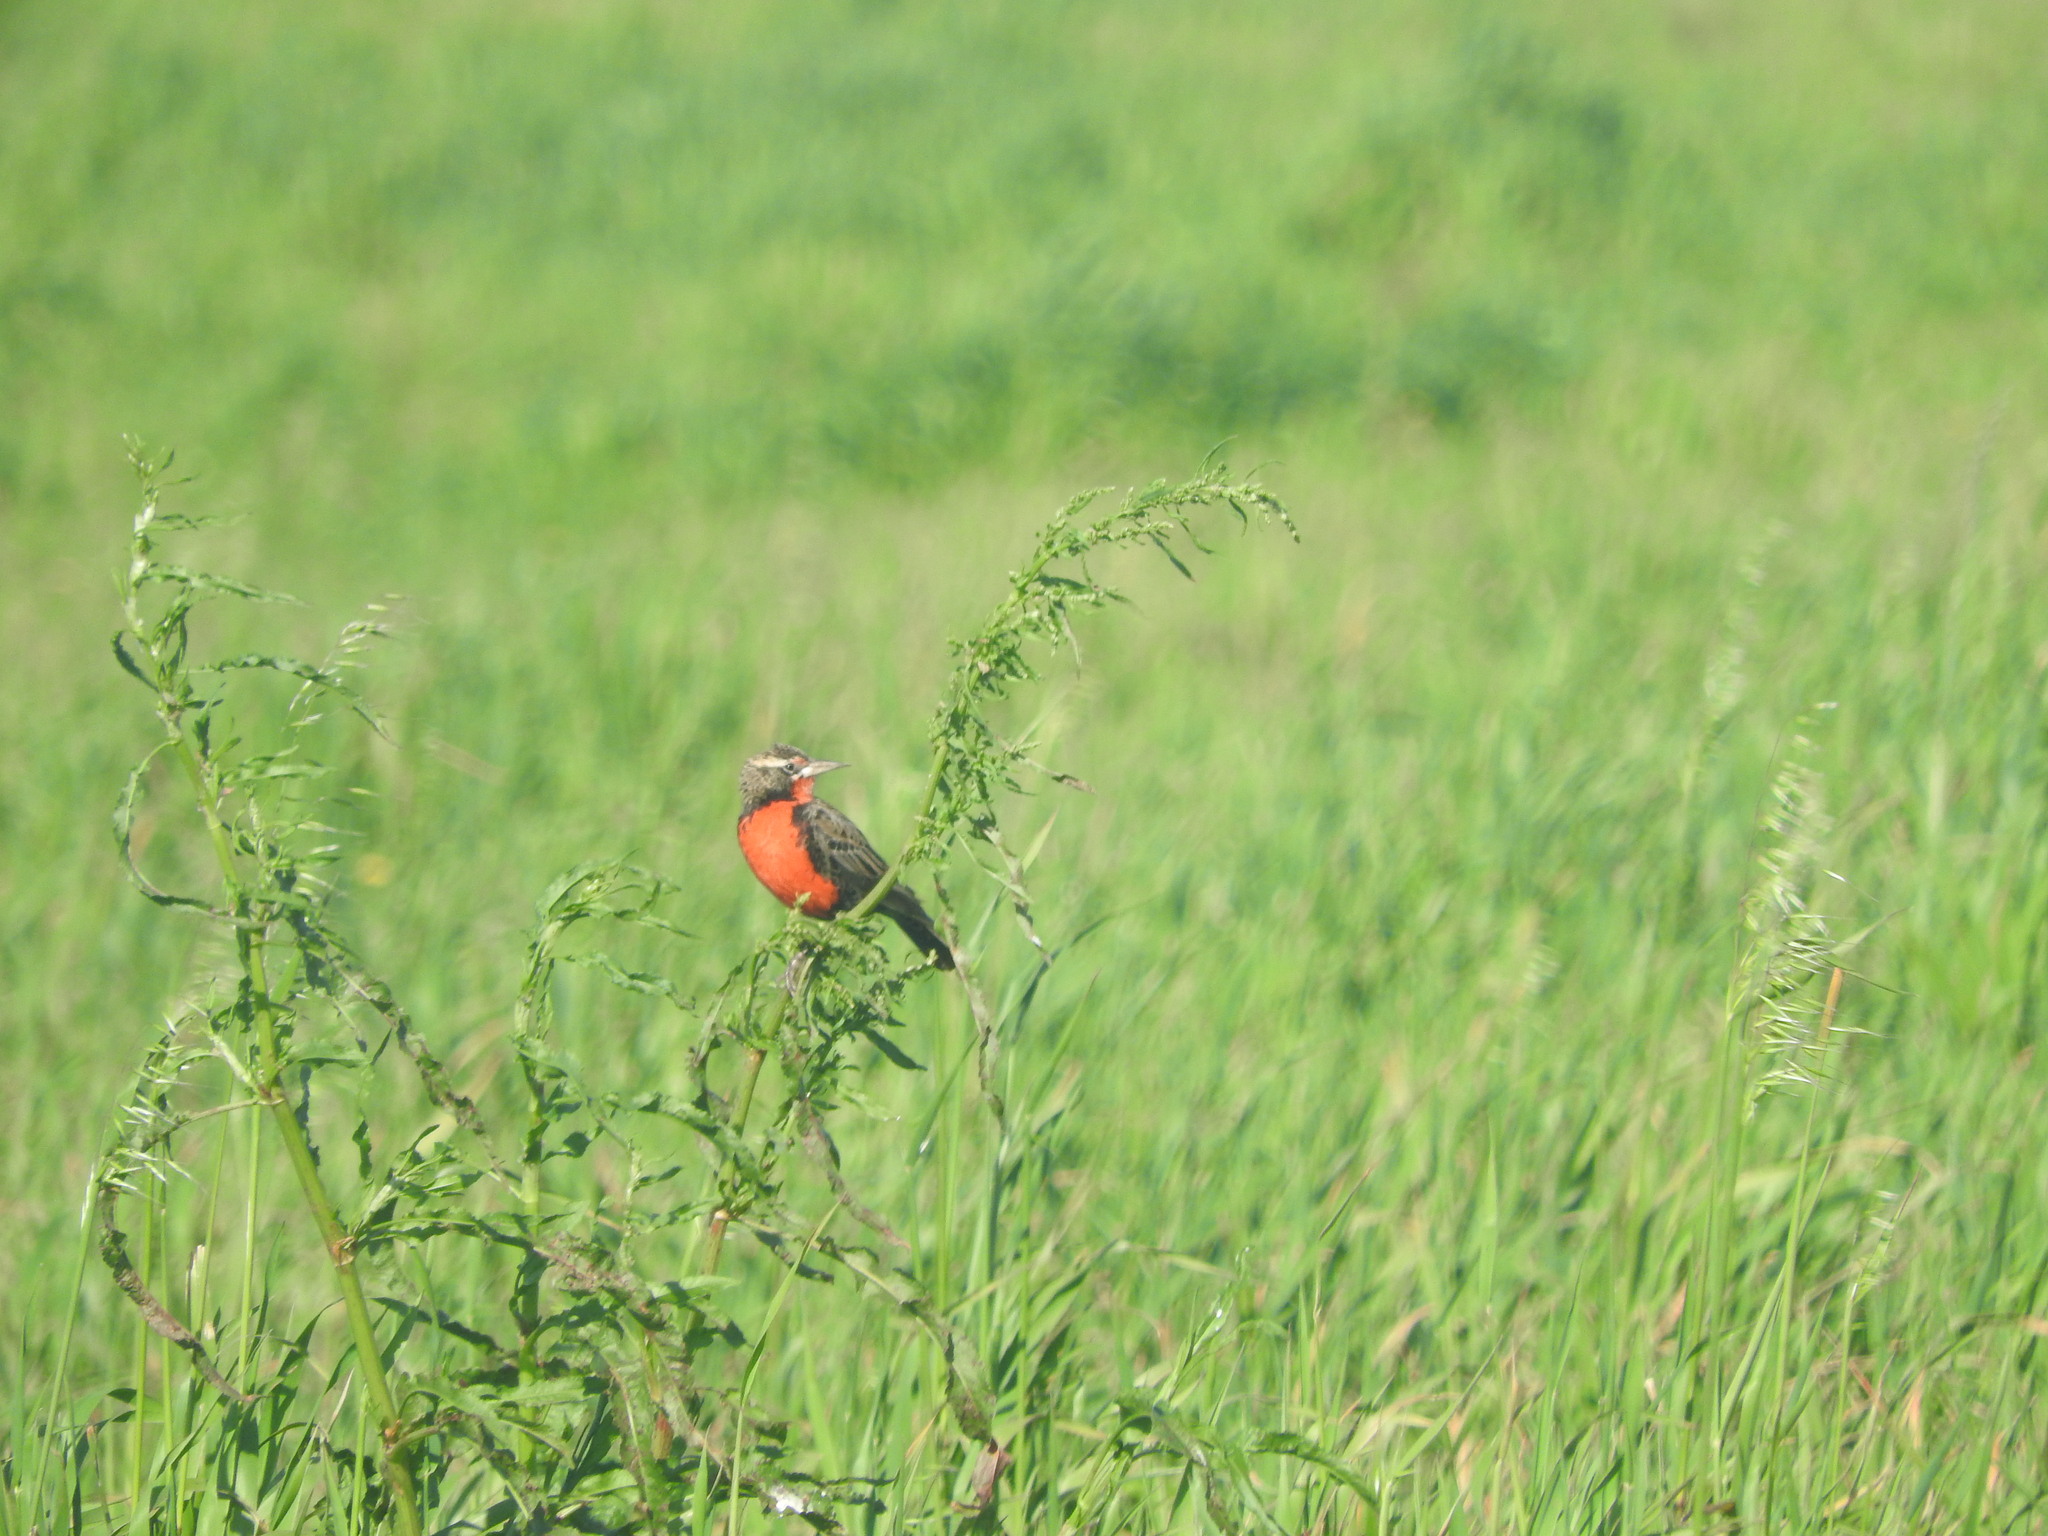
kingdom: Animalia
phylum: Chordata
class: Aves
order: Passeriformes
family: Icteridae
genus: Sturnella
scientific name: Sturnella defilippii
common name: Pampas meadowlark
